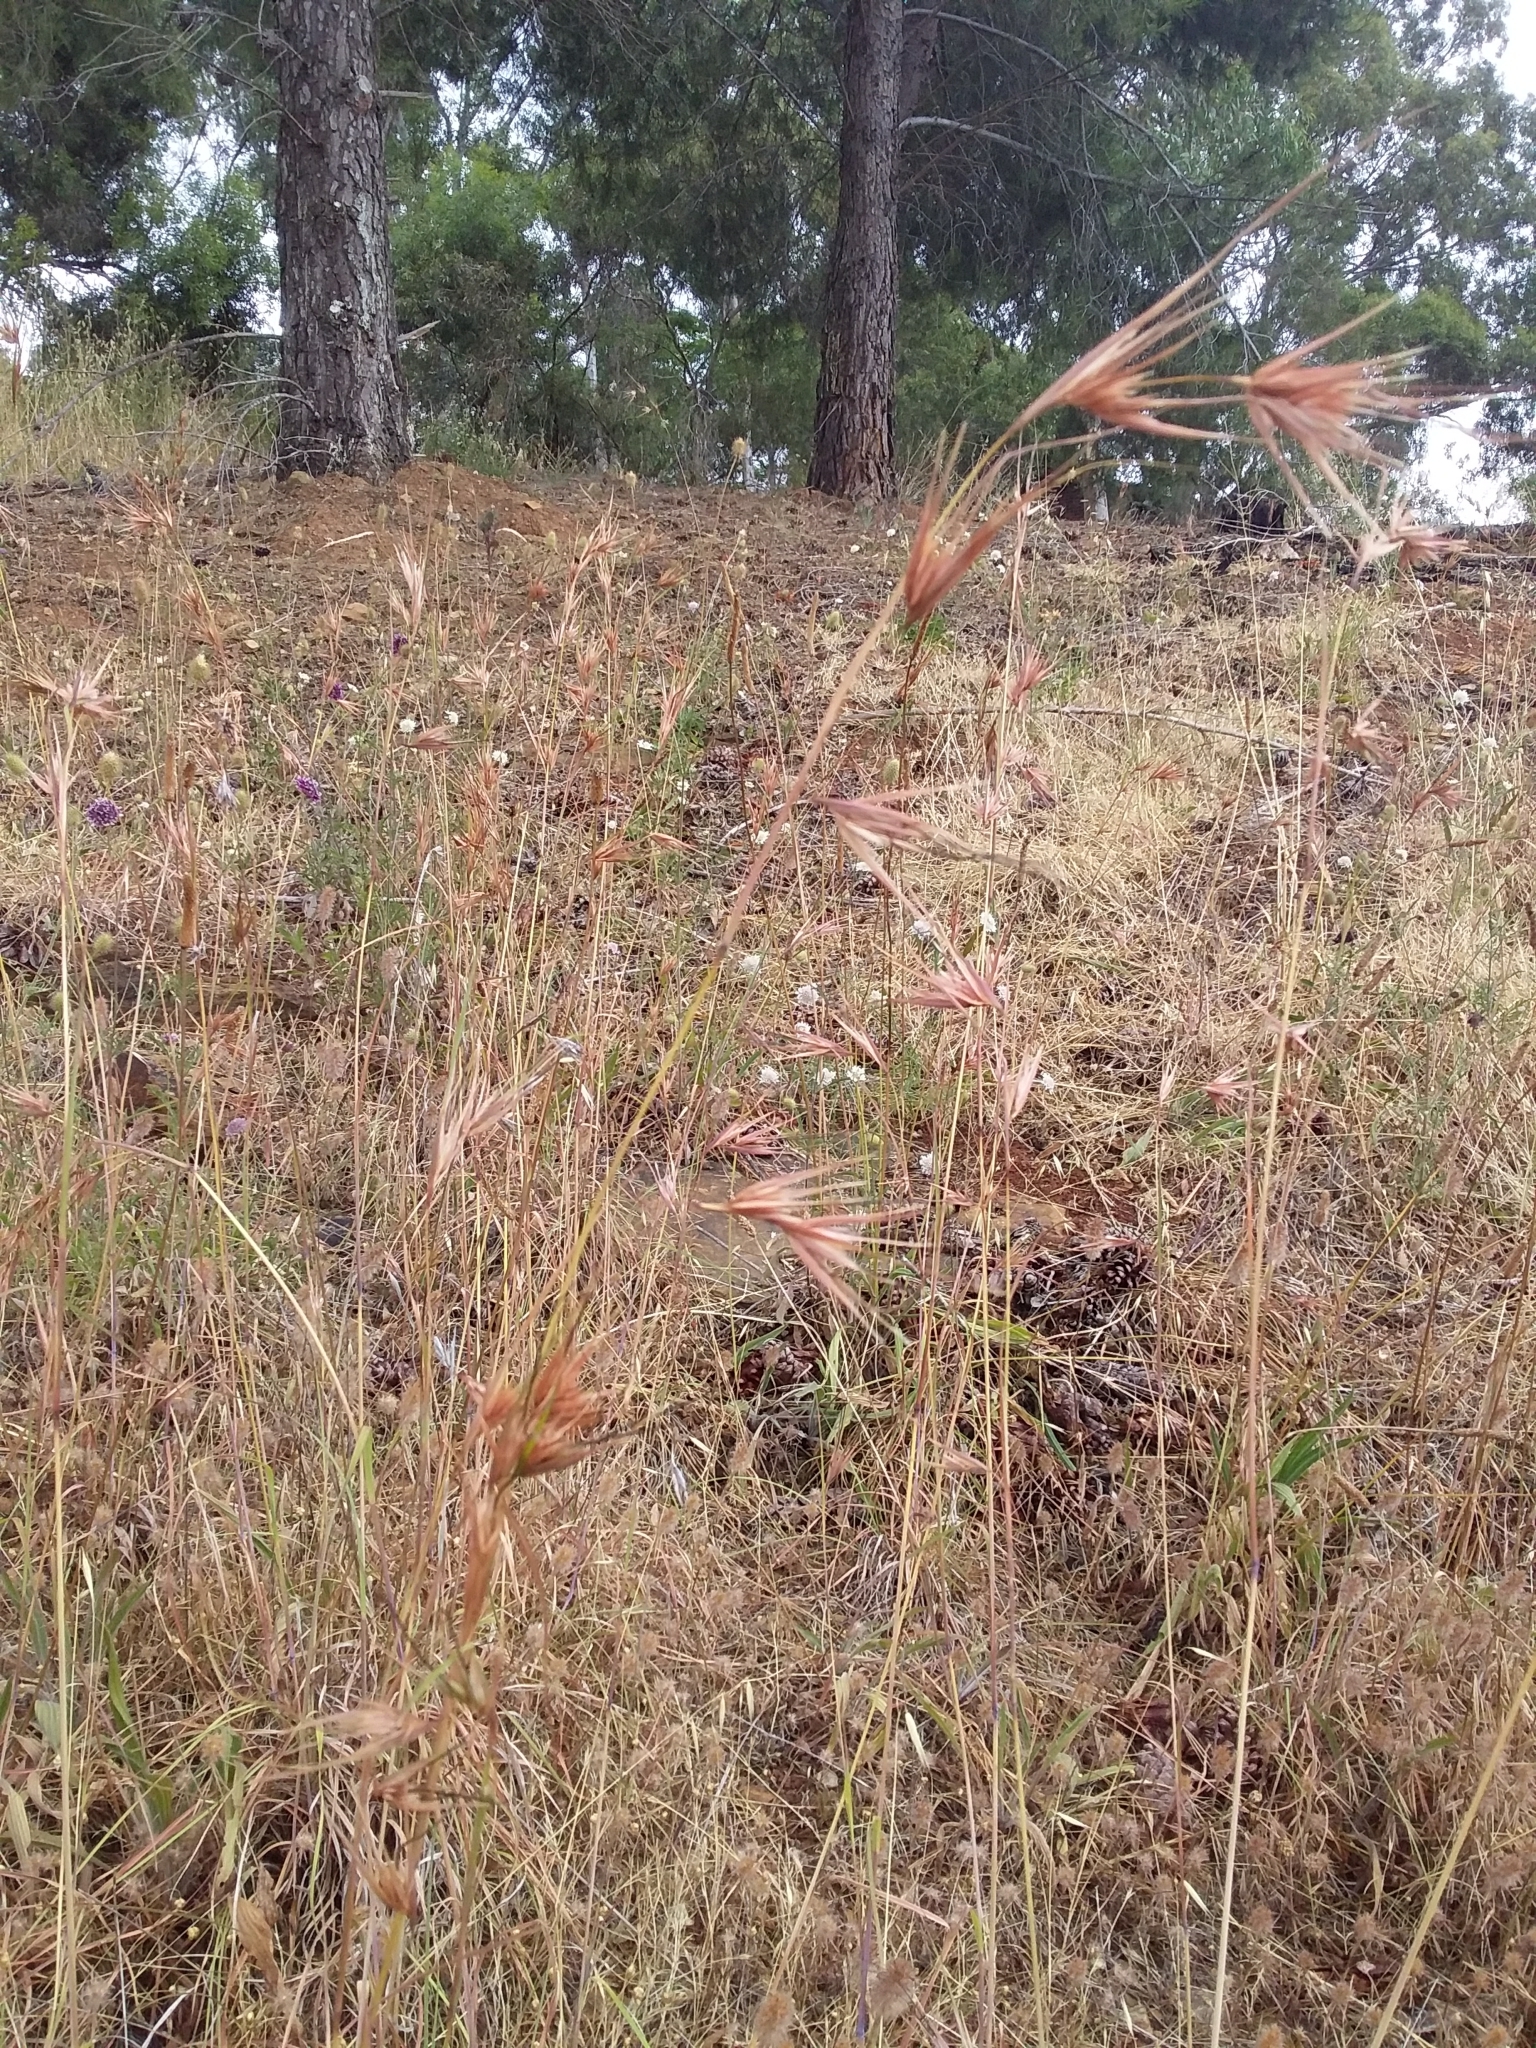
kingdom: Plantae
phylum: Tracheophyta
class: Liliopsida
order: Poales
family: Poaceae
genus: Themeda
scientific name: Themeda triandra
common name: Kangaroo grass
